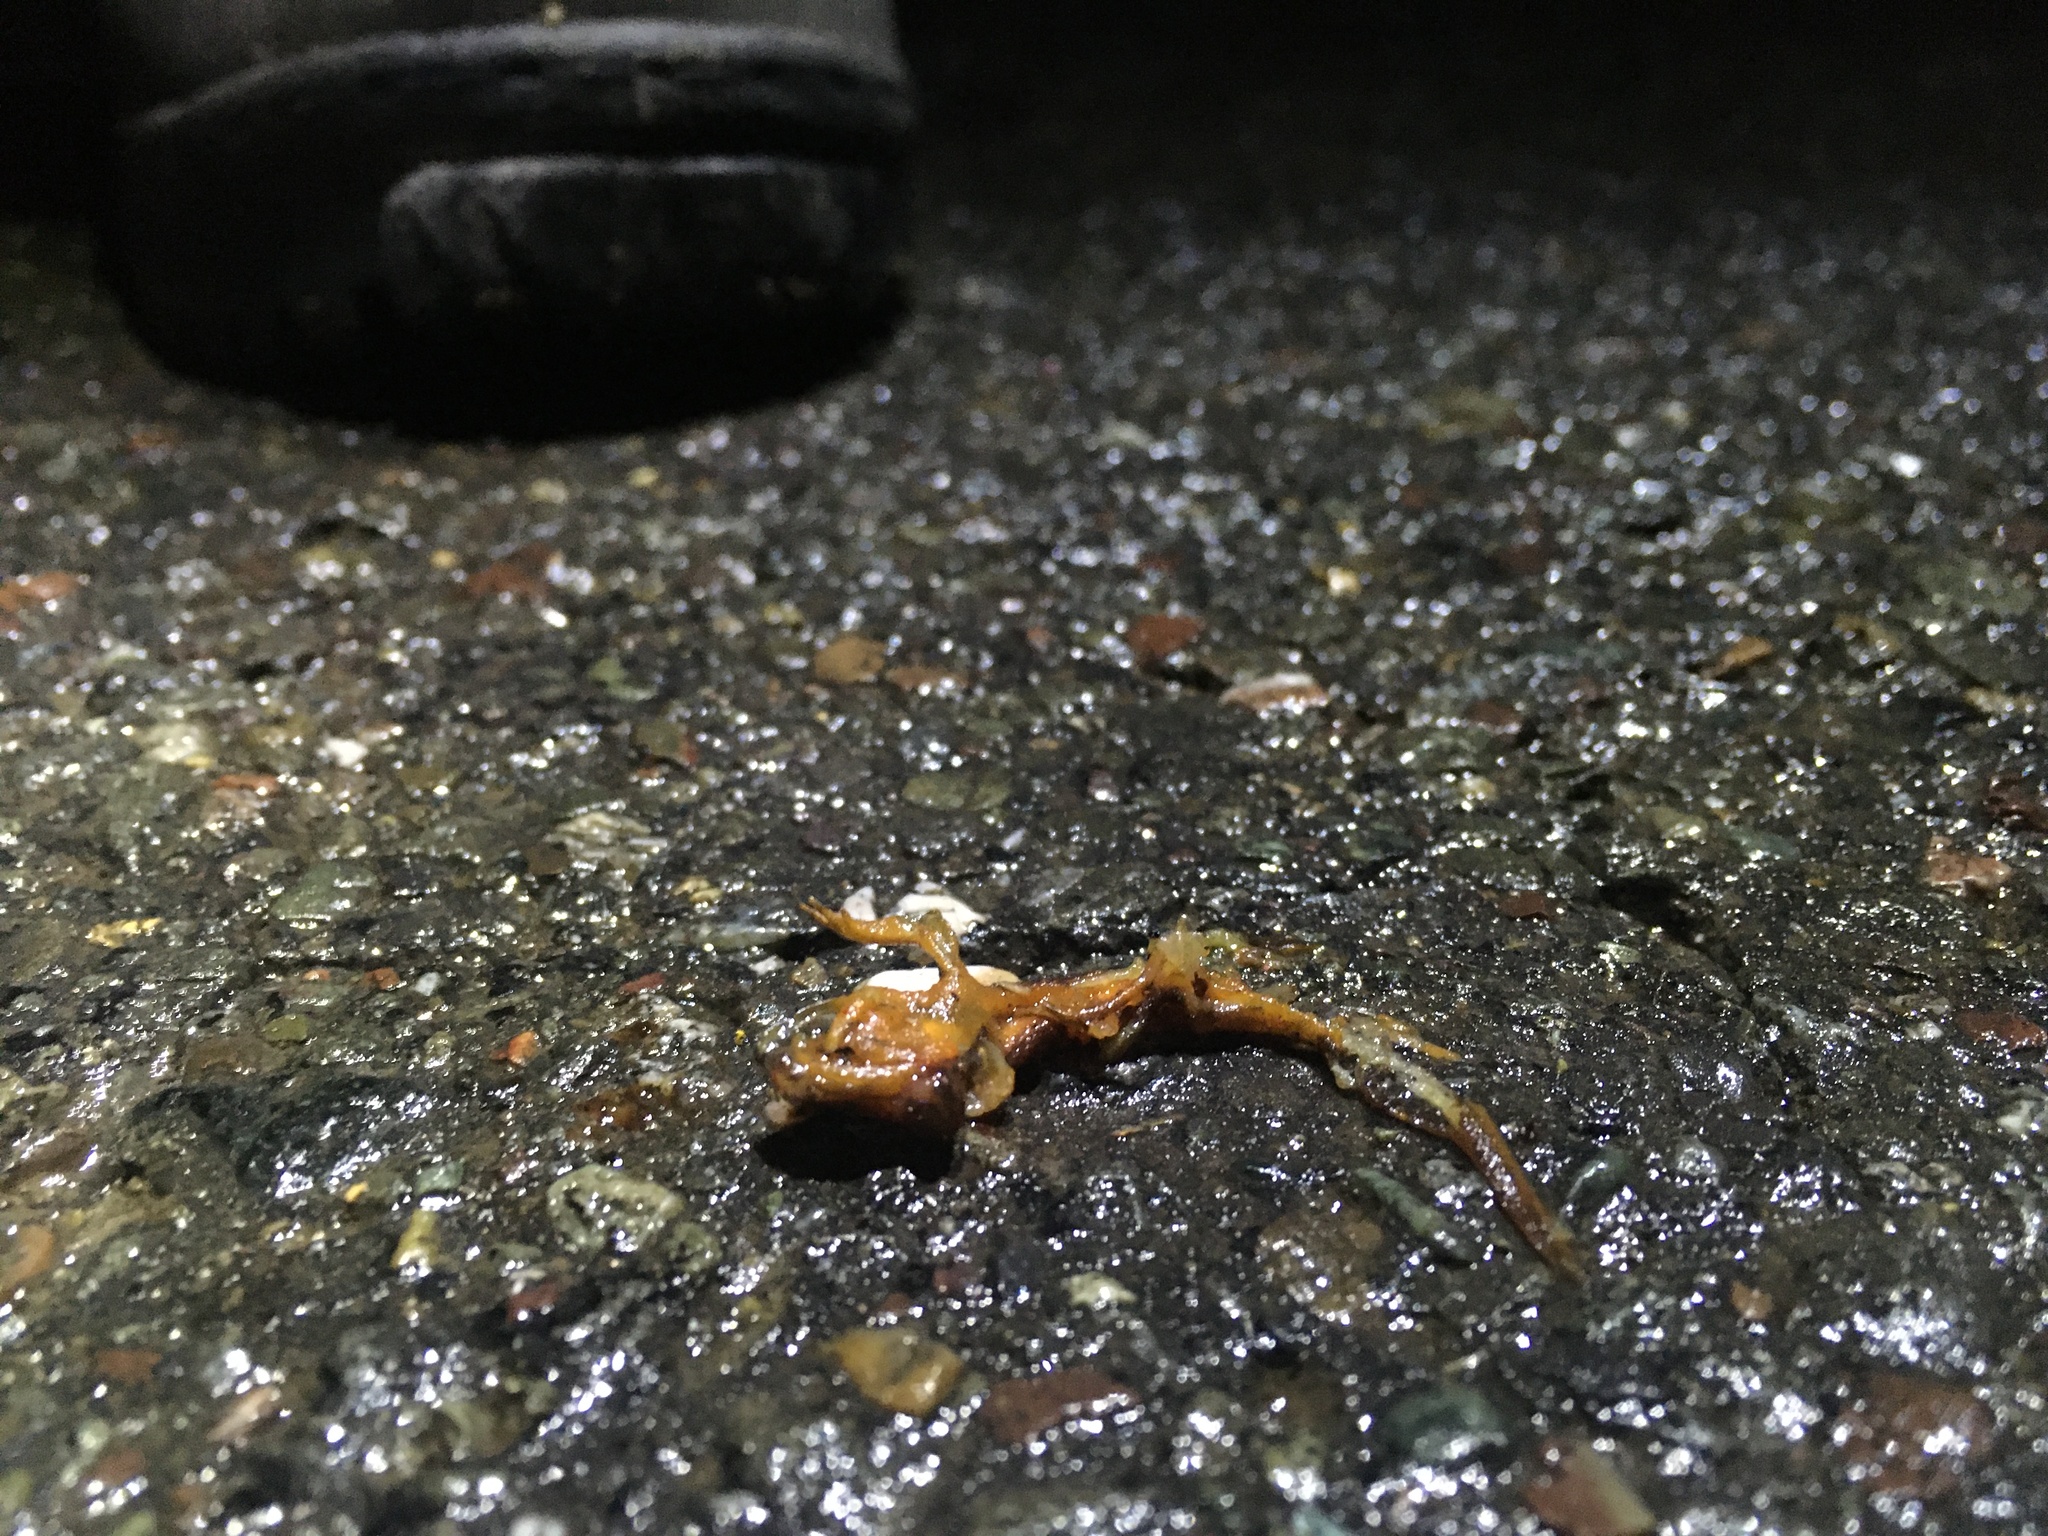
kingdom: Animalia
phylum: Chordata
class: Amphibia
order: Caudata
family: Salamandridae
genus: Taricha
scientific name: Taricha
